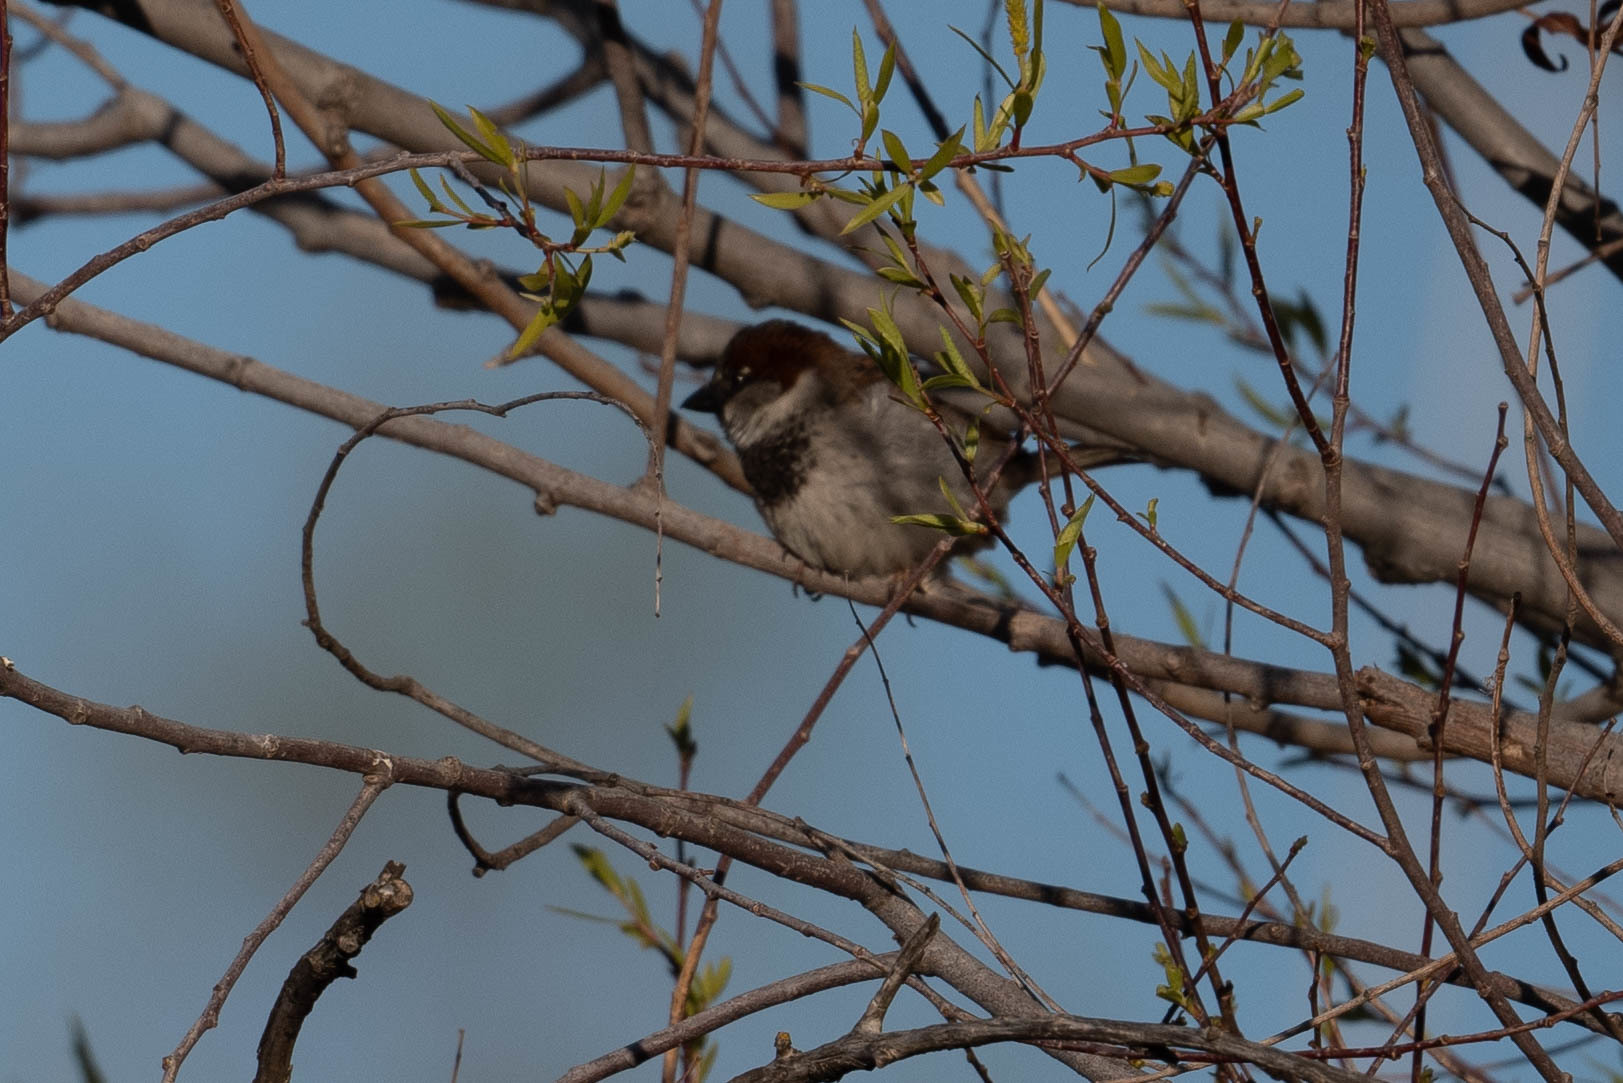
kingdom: Animalia
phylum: Chordata
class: Aves
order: Passeriformes
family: Passeridae
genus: Passer
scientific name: Passer domesticus
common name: House sparrow
